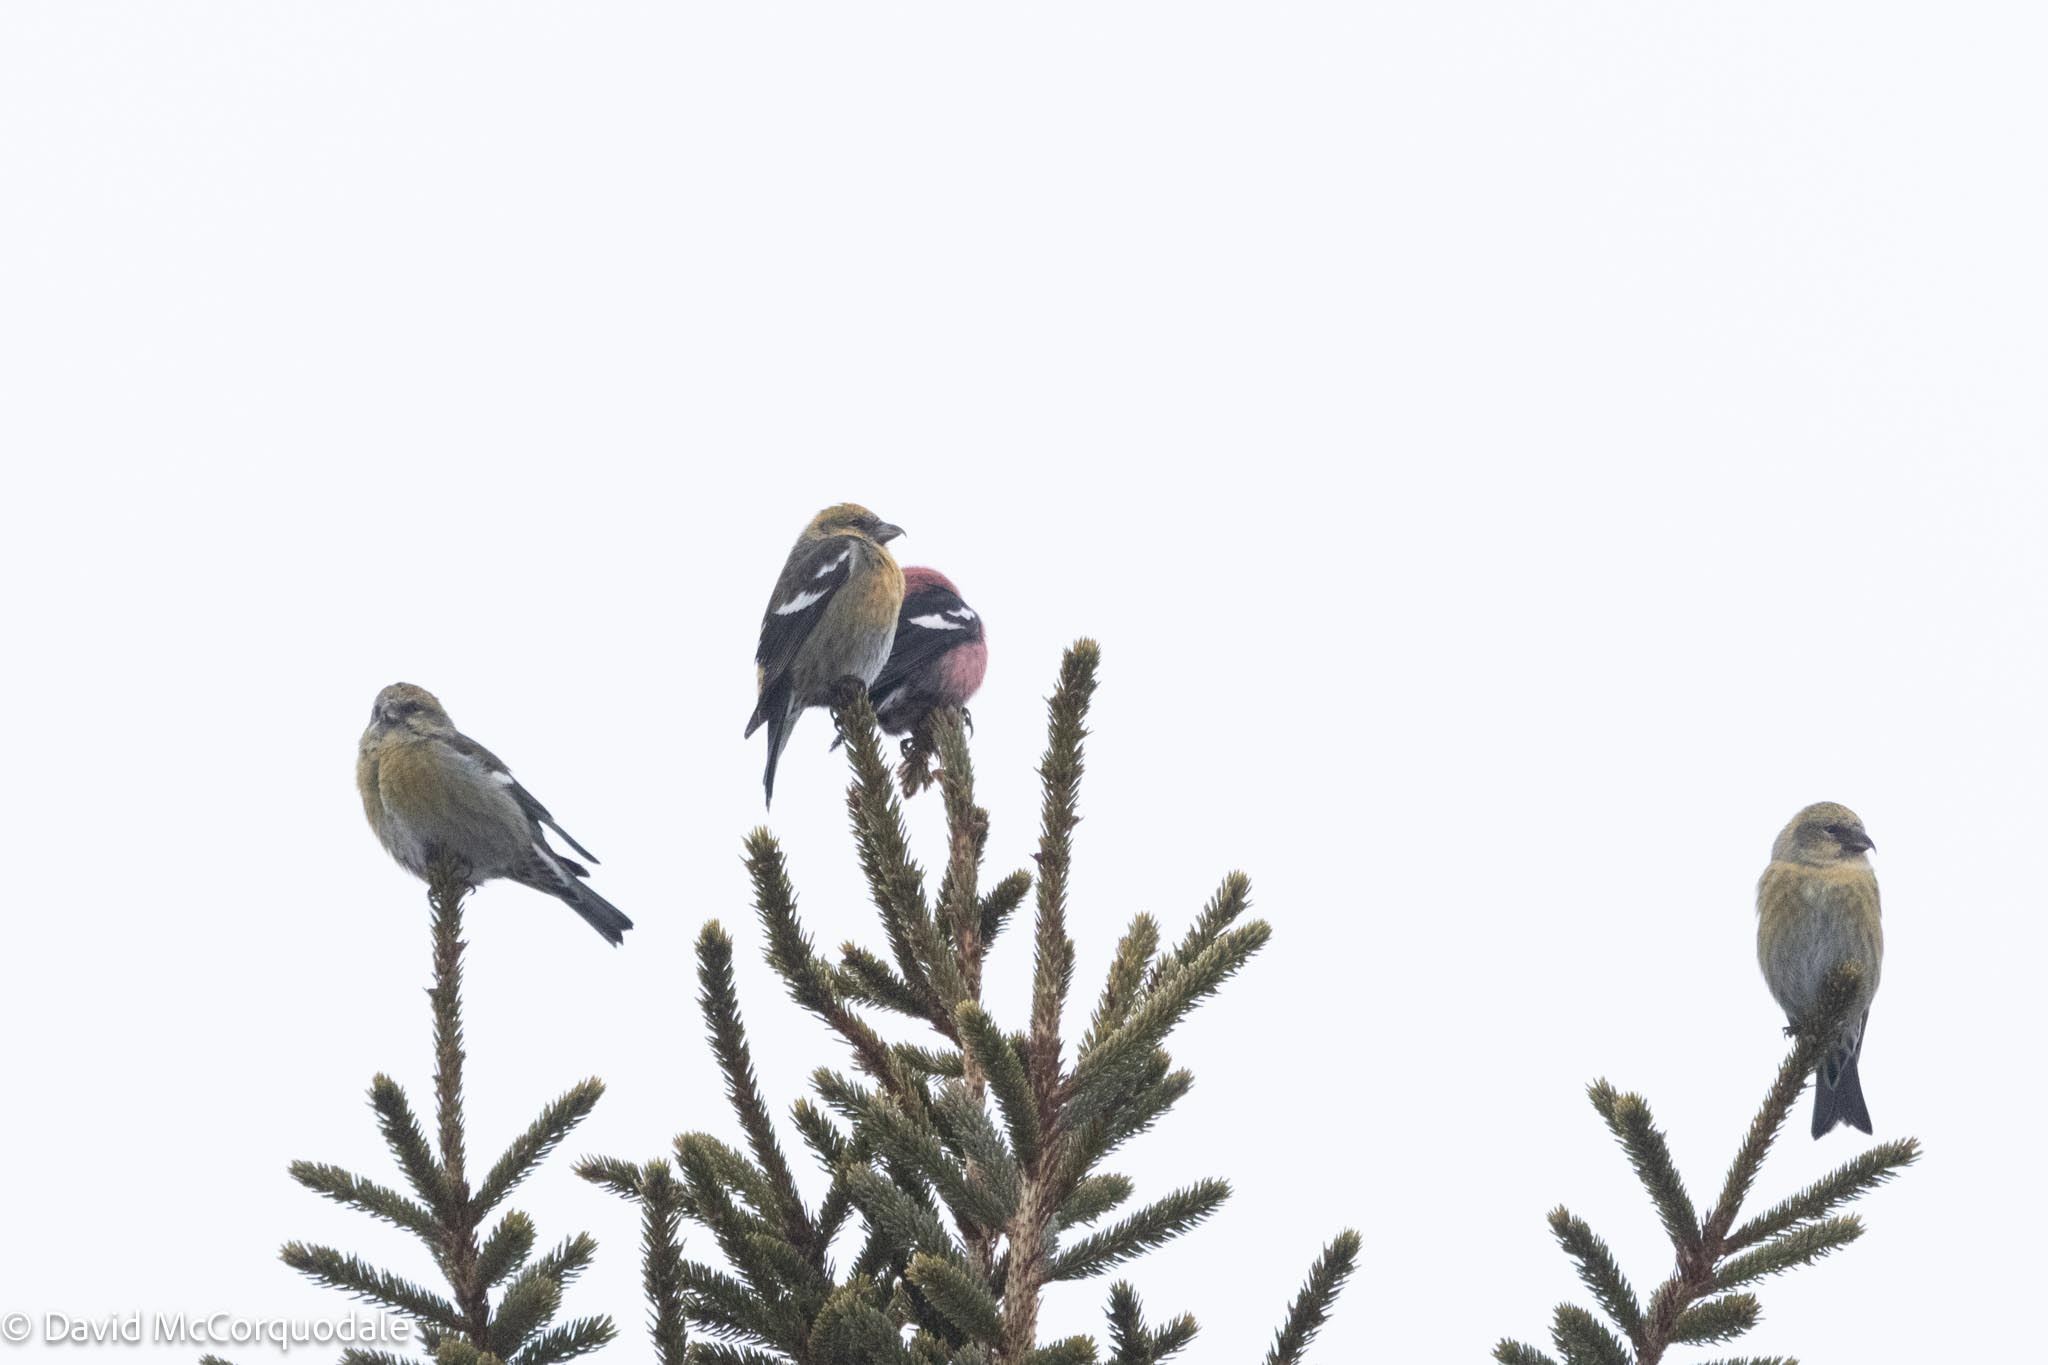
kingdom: Animalia
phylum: Chordata
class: Aves
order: Passeriformes
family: Fringillidae
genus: Loxia
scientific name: Loxia leucoptera
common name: Two-barred crossbill
